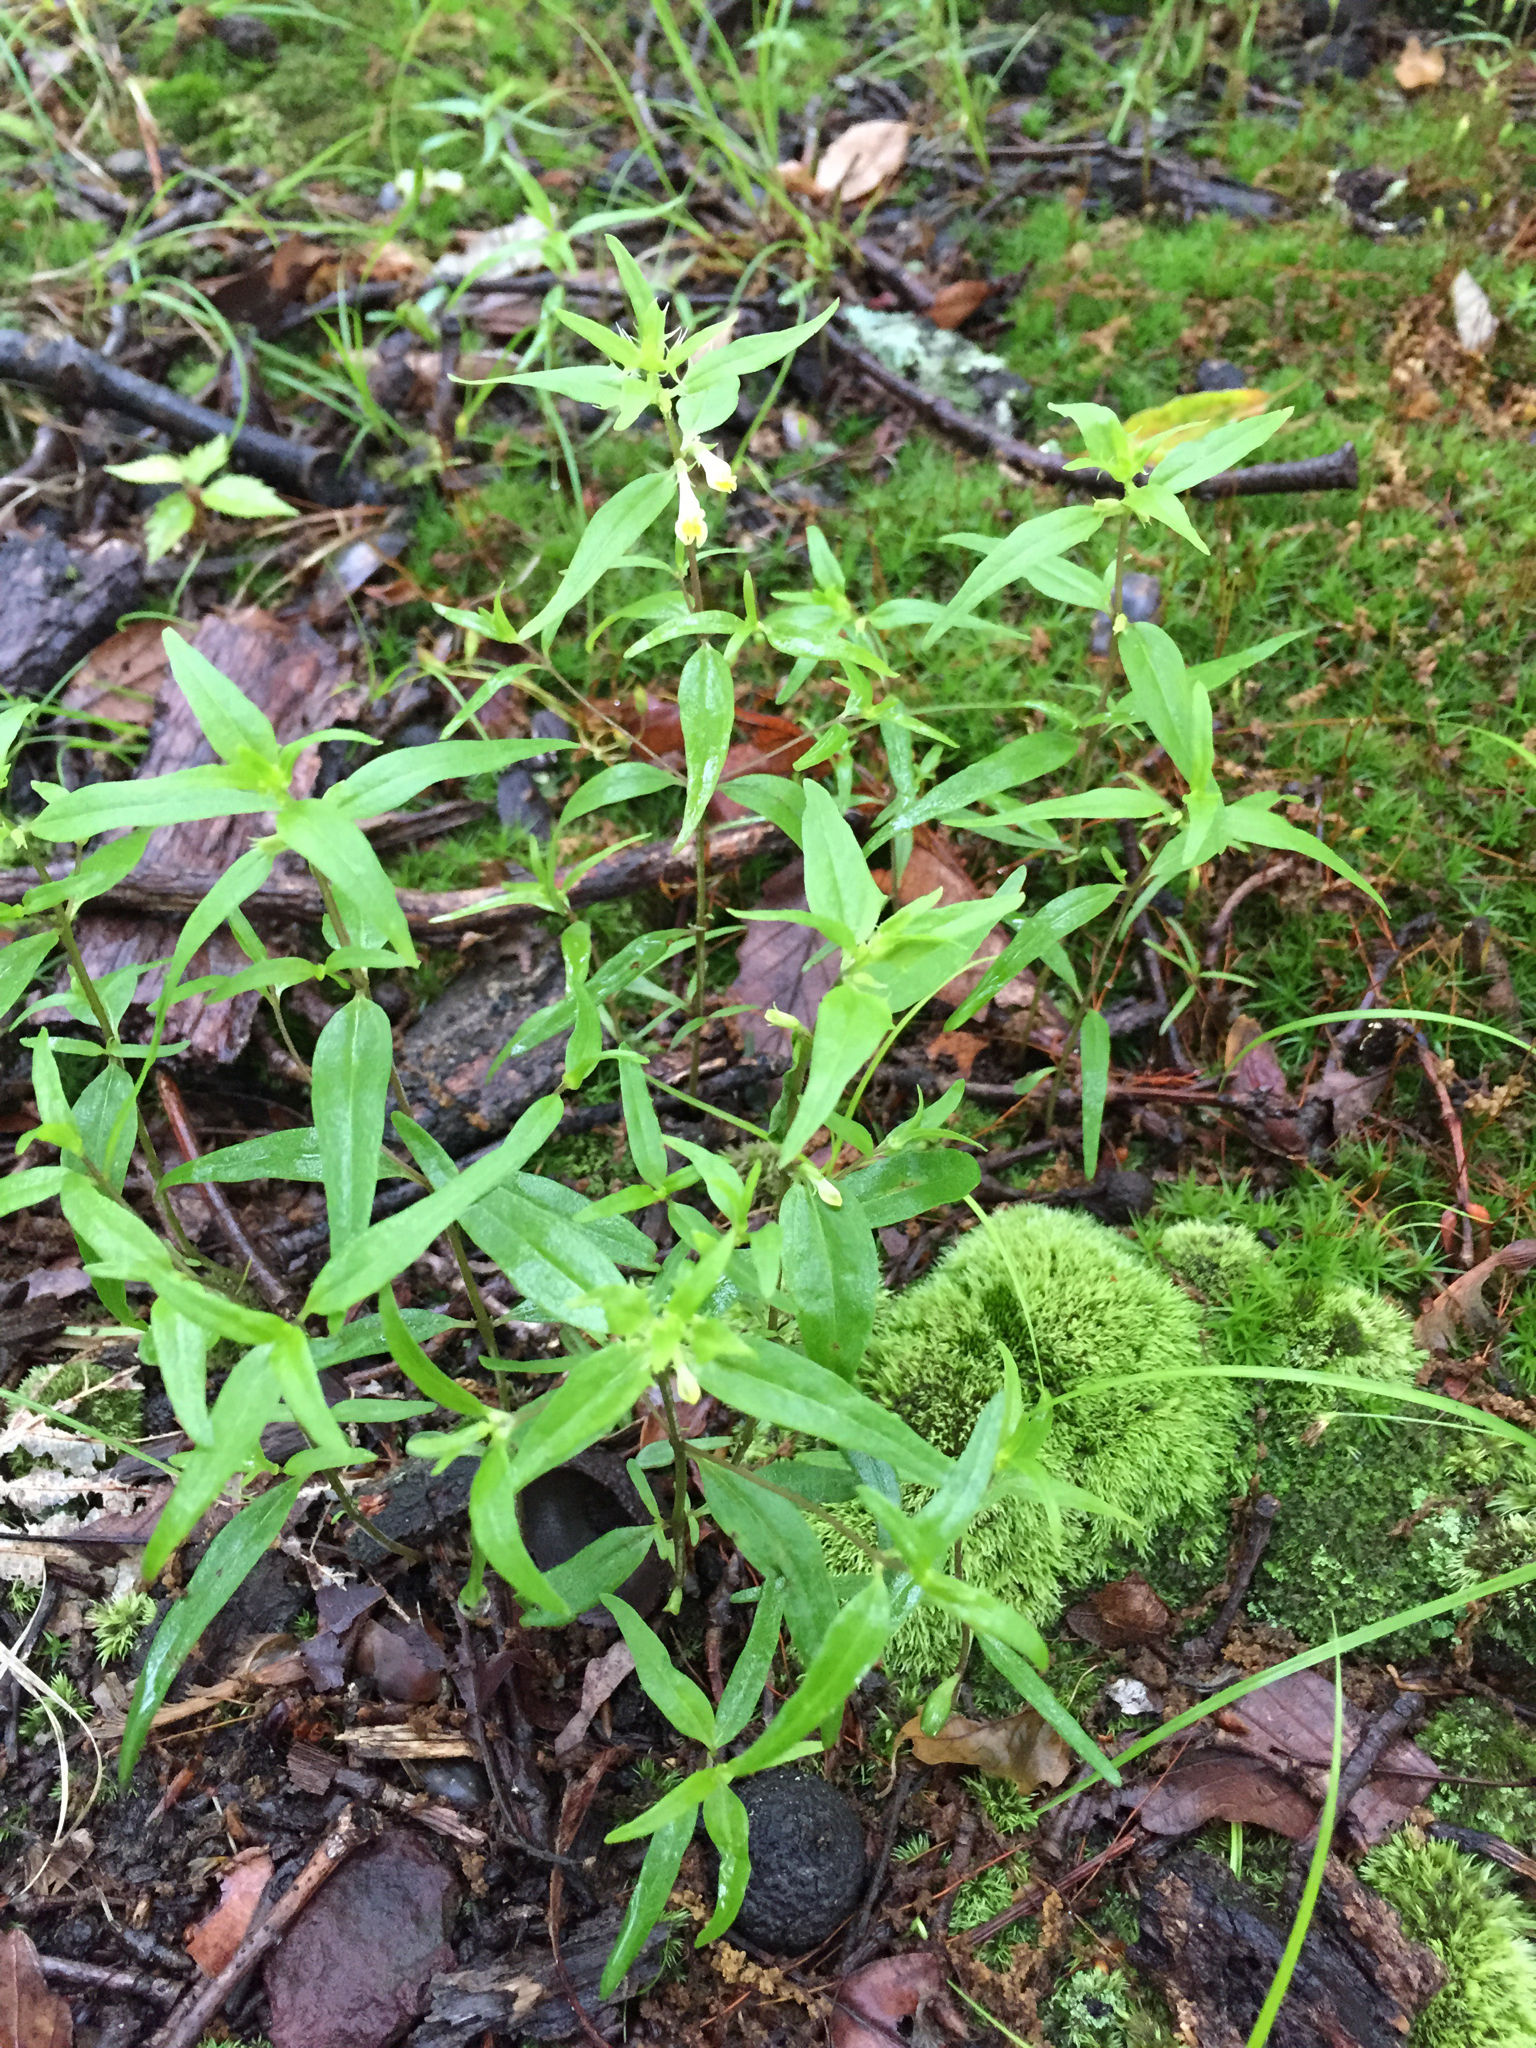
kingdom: Plantae
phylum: Tracheophyta
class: Magnoliopsida
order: Lamiales
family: Orobanchaceae
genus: Melampyrum
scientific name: Melampyrum lineare
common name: American cow-wheat
